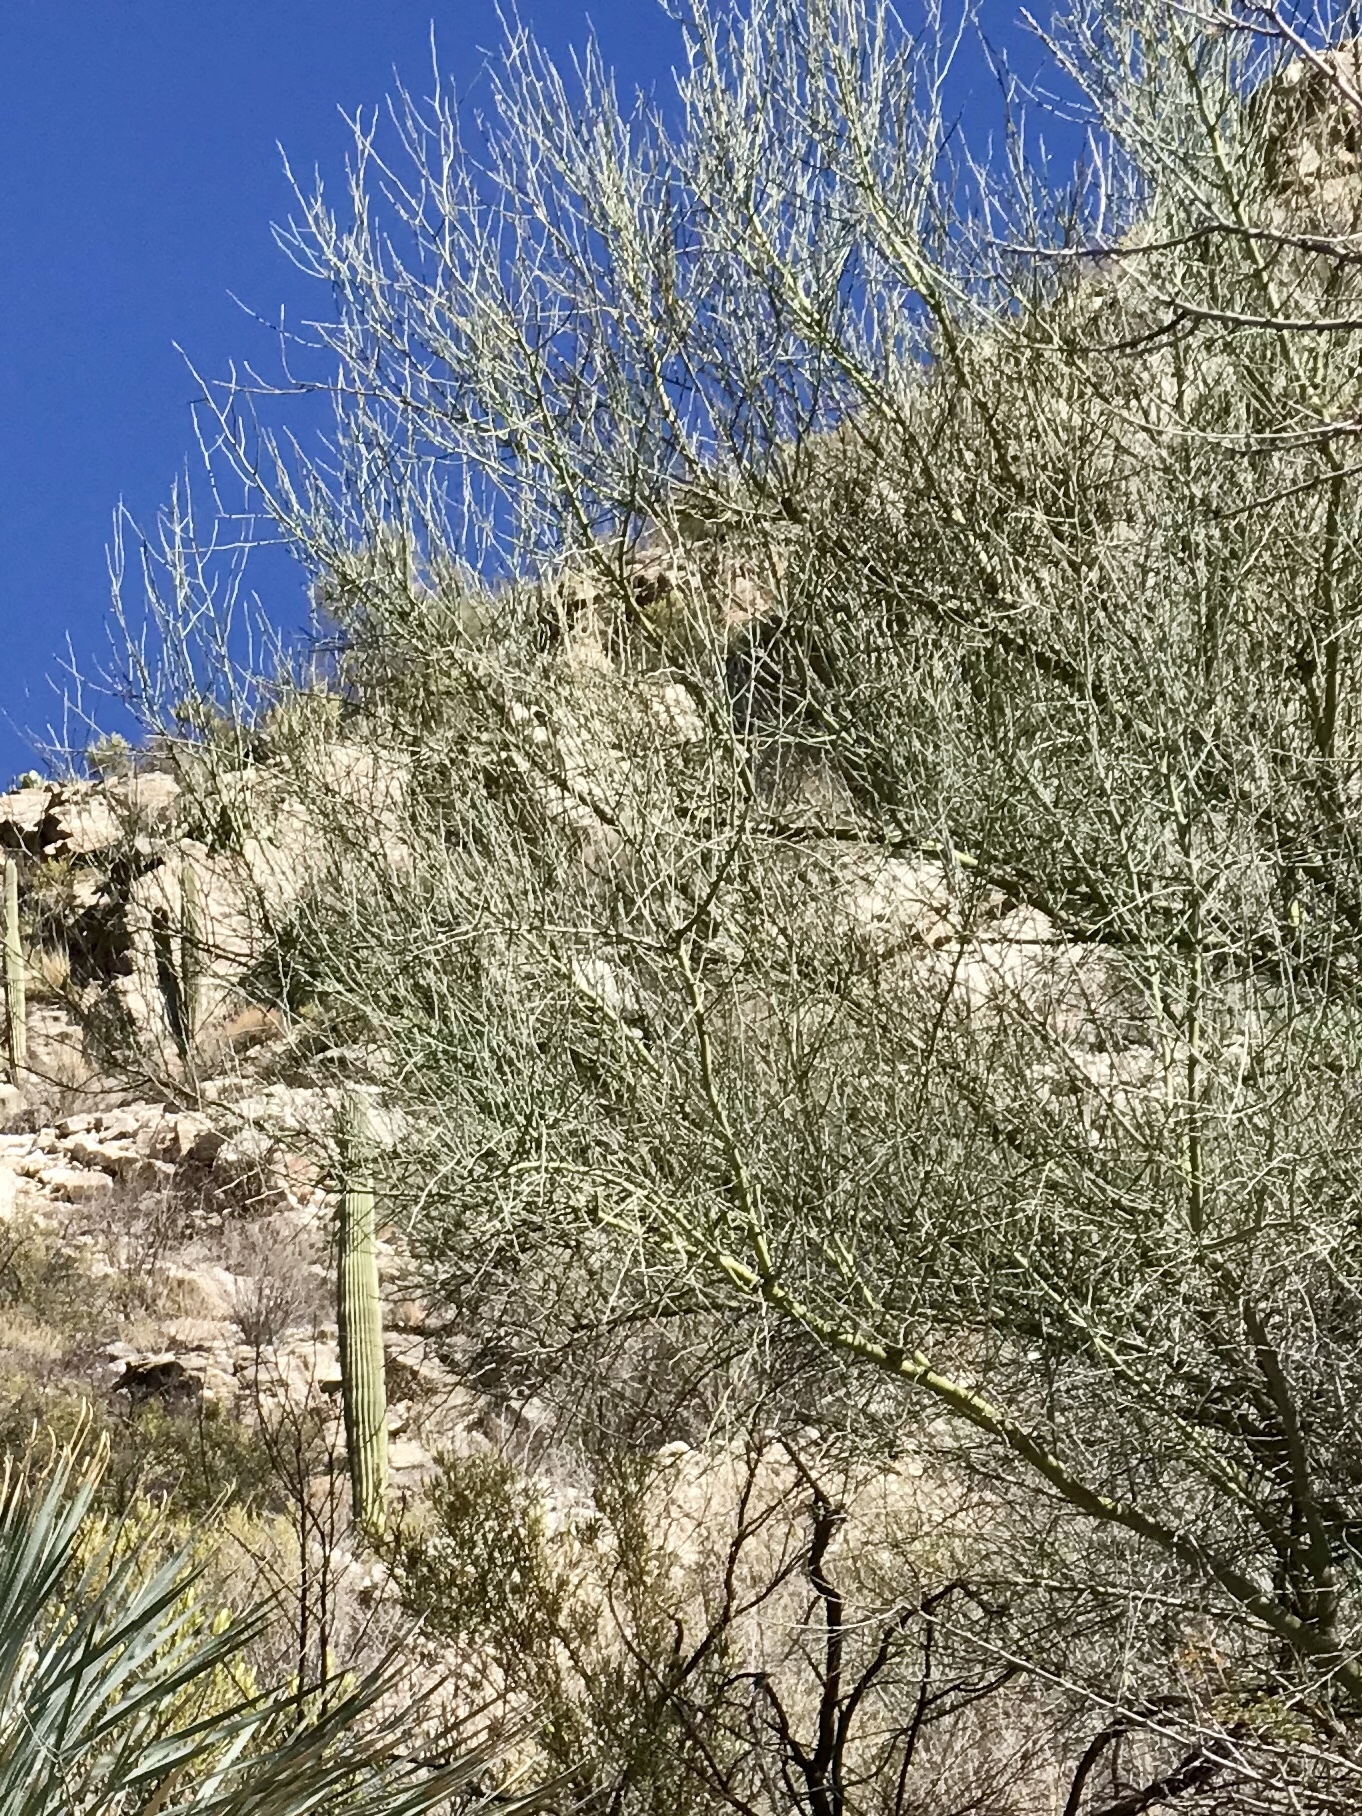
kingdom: Plantae
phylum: Tracheophyta
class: Magnoliopsida
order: Fabales
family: Fabaceae
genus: Parkinsonia
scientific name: Parkinsonia florida
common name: Blue paloverde
